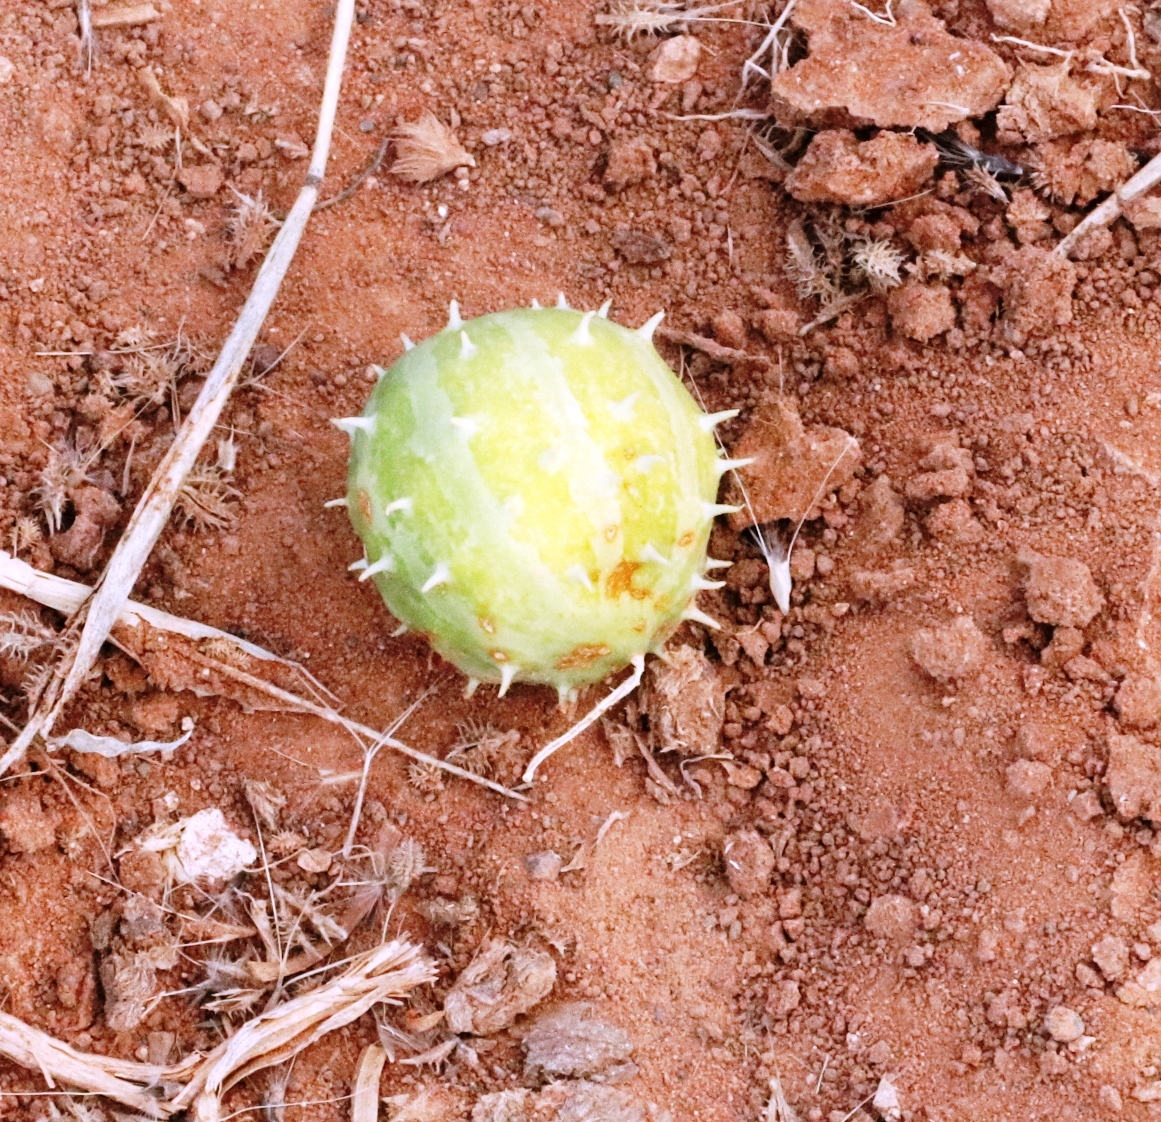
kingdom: Plantae
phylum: Tracheophyta
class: Magnoliopsida
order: Cucurbitales
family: Cucurbitaceae
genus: Cucumis
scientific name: Cucumis myriocarpus
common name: Gooseberry cucumber
